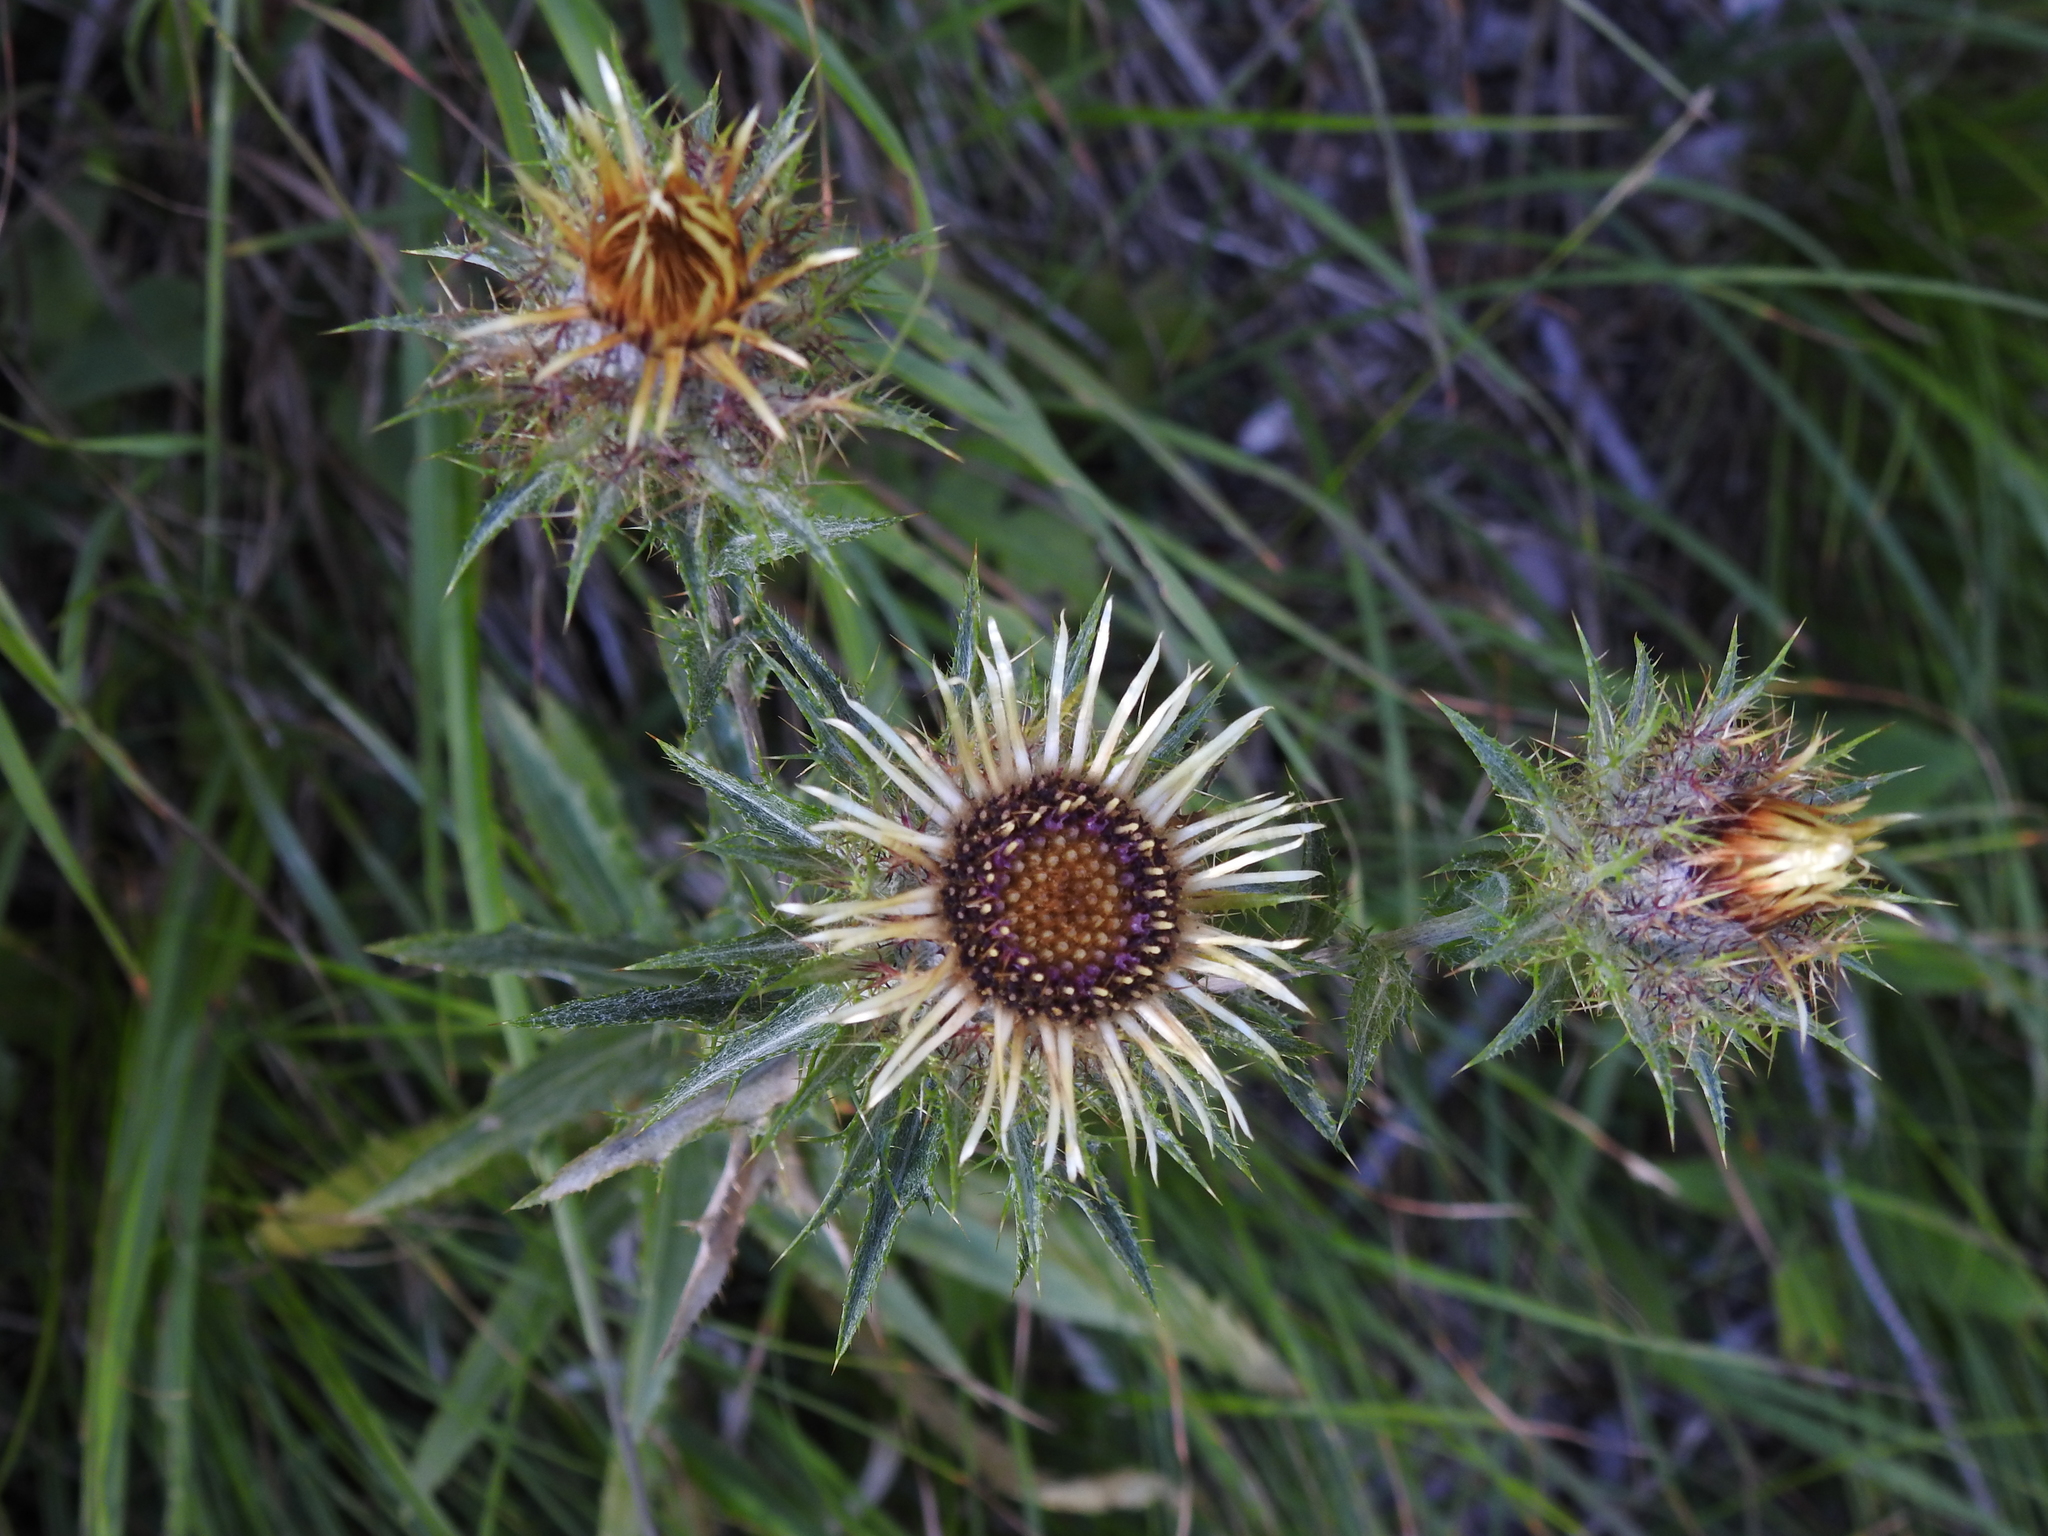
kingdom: Plantae
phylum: Tracheophyta
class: Magnoliopsida
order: Asterales
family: Asteraceae
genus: Carlina
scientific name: Carlina vulgaris
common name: Carline thistle
